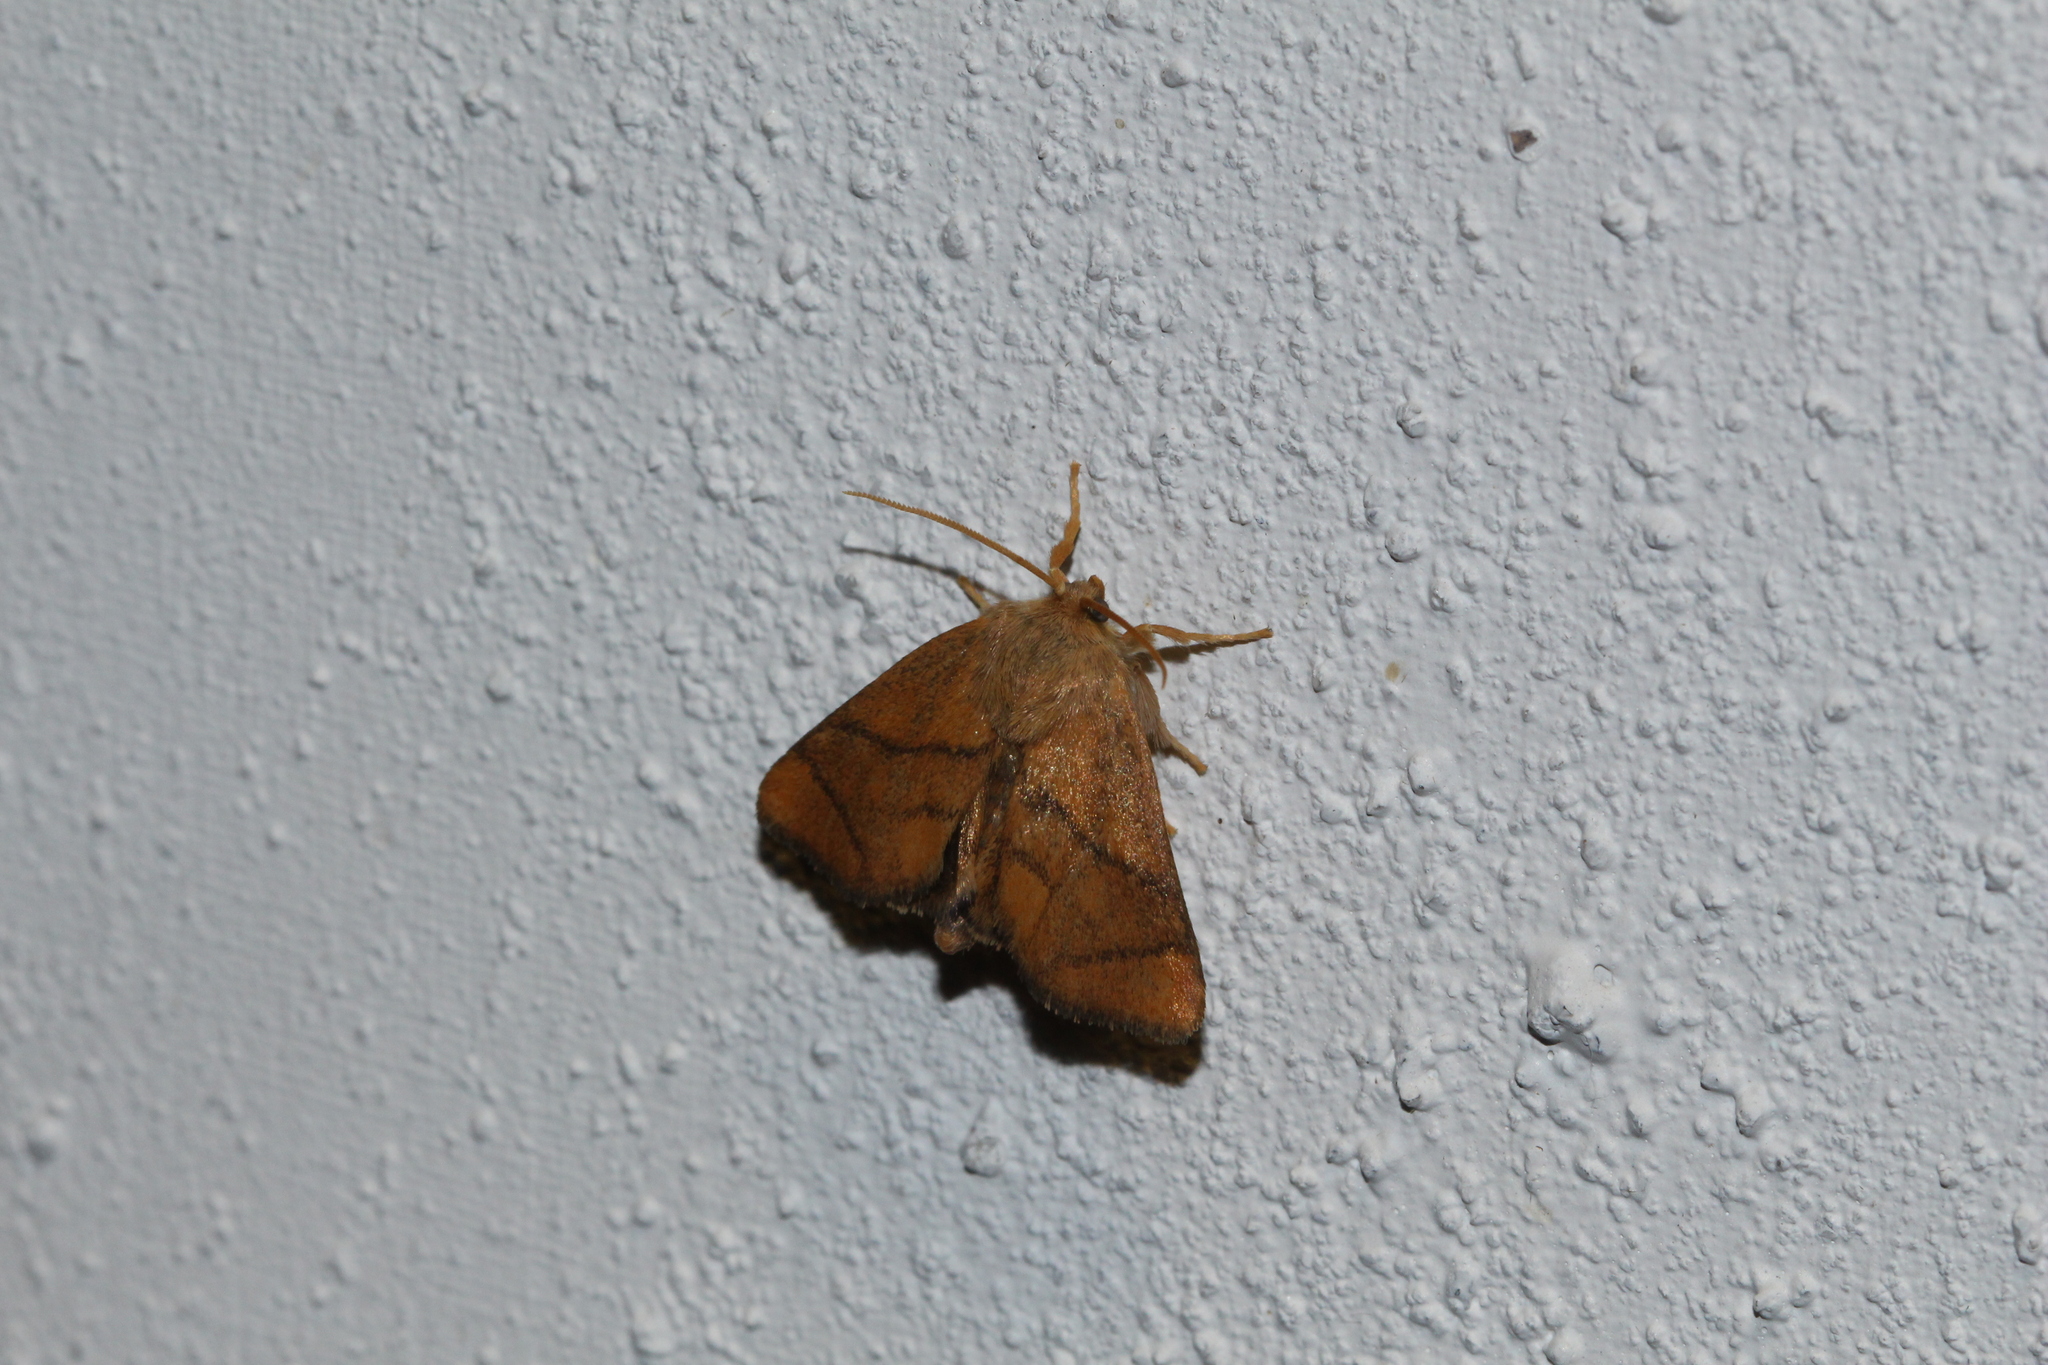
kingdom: Animalia
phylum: Arthropoda
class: Insecta
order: Lepidoptera
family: Limacodidae
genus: Apoda
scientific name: Apoda limacodes
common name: Festoon
